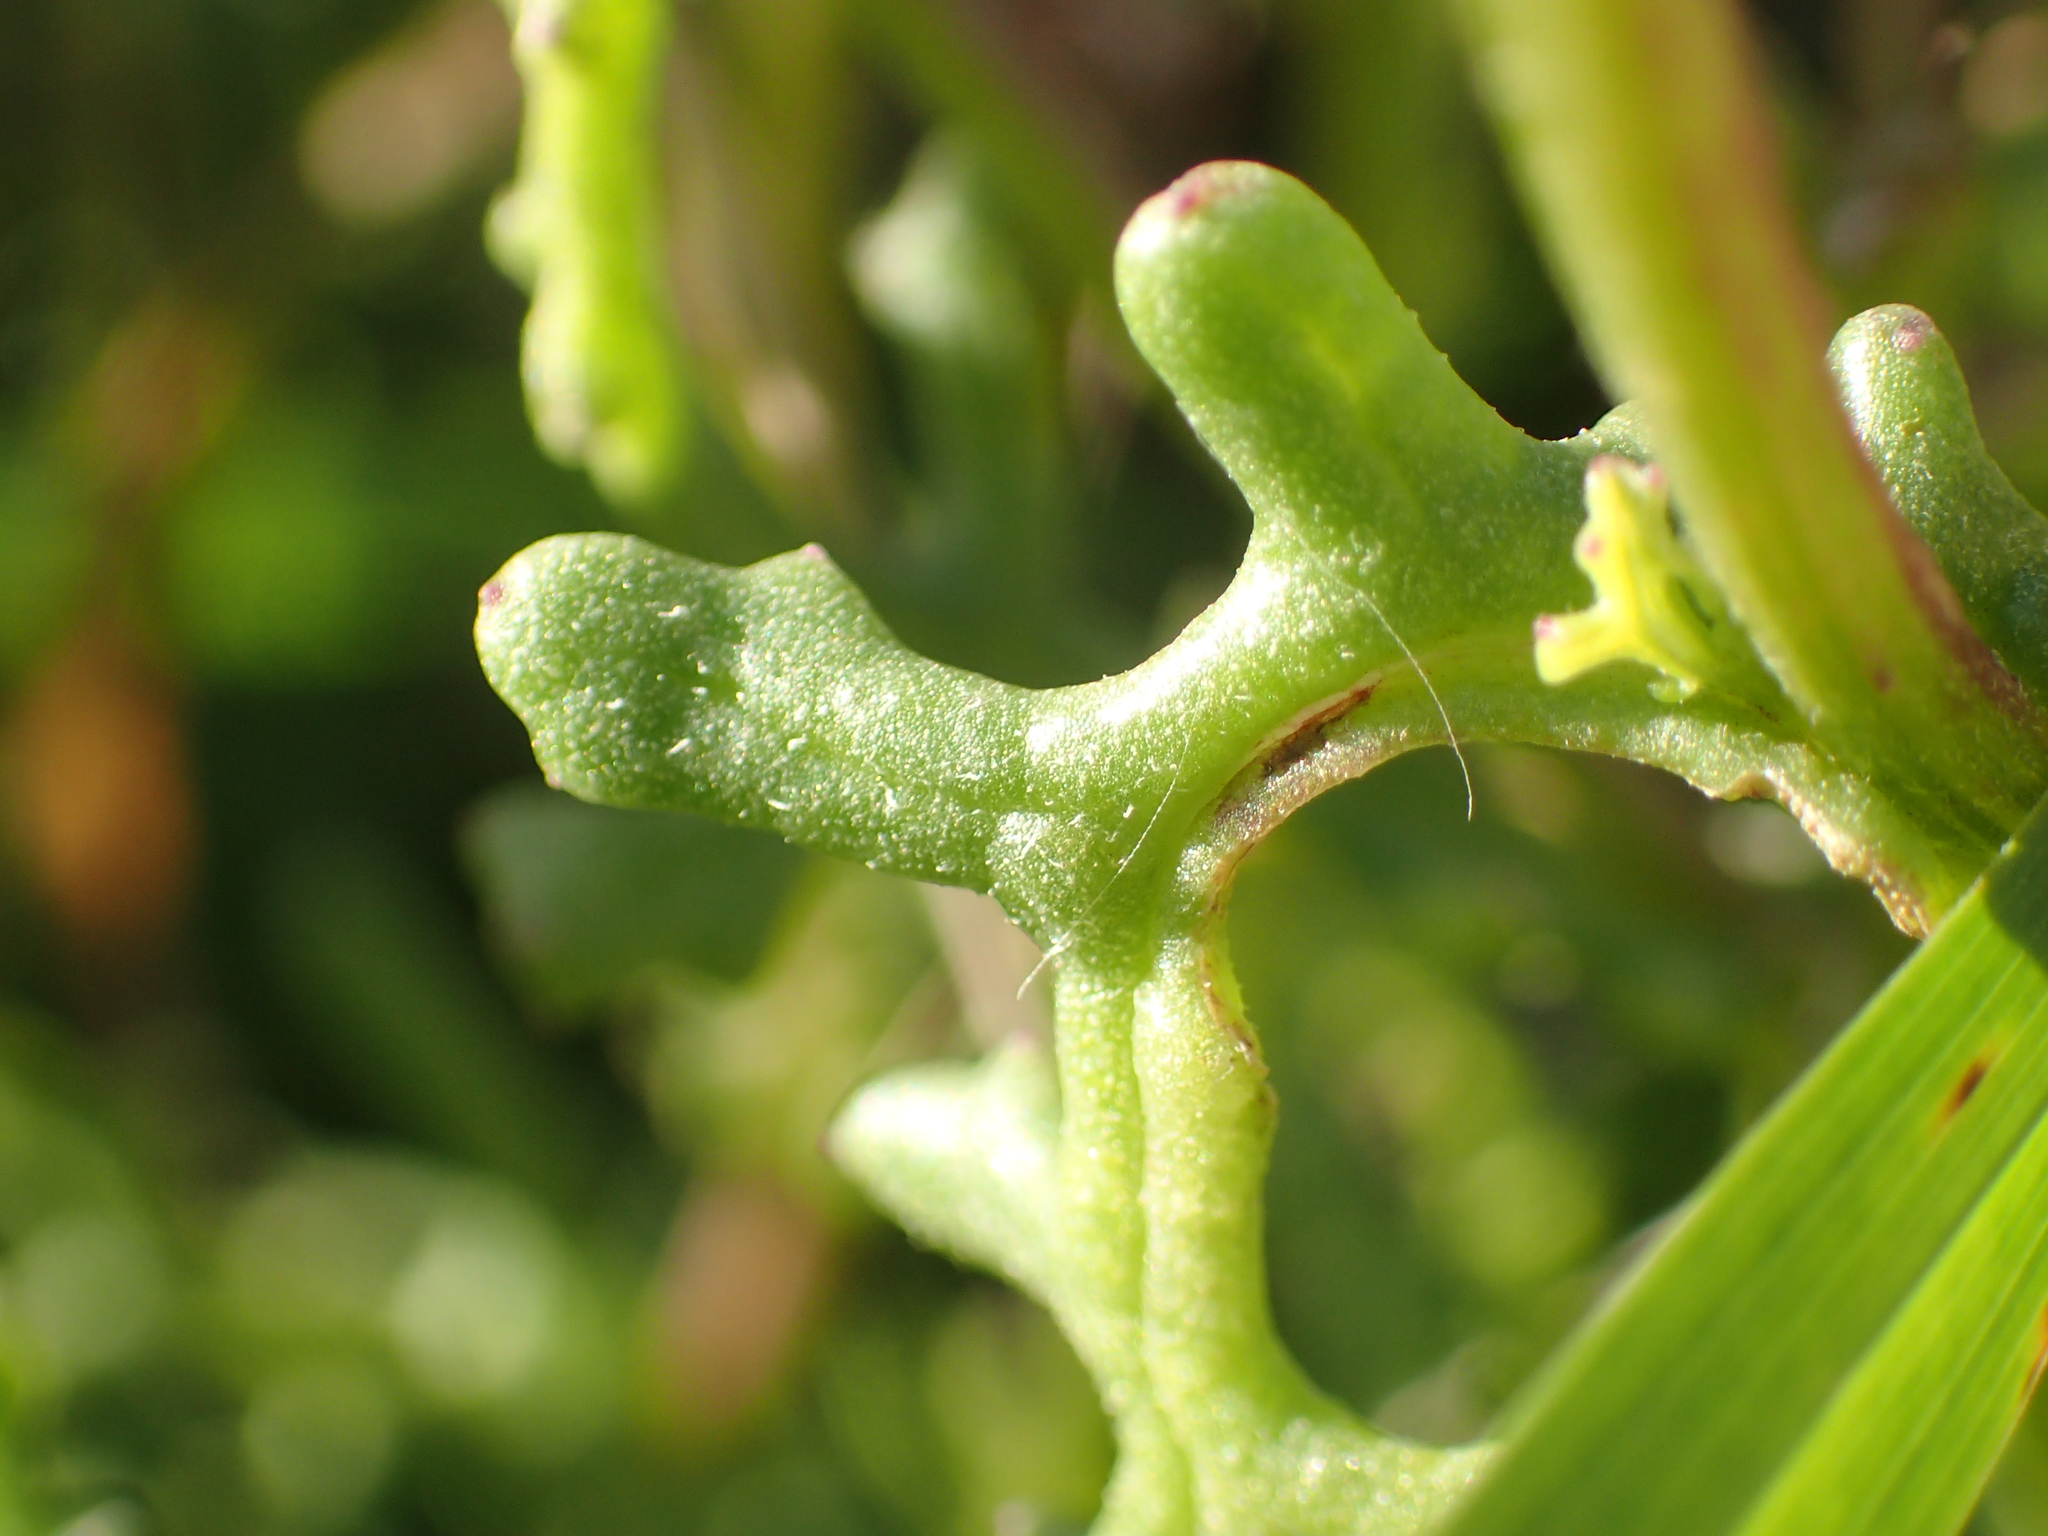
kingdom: Plantae
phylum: Tracheophyta
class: Magnoliopsida
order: Asterales
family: Asteraceae
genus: Senecio
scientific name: Senecio elegans
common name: Purple groundsel
